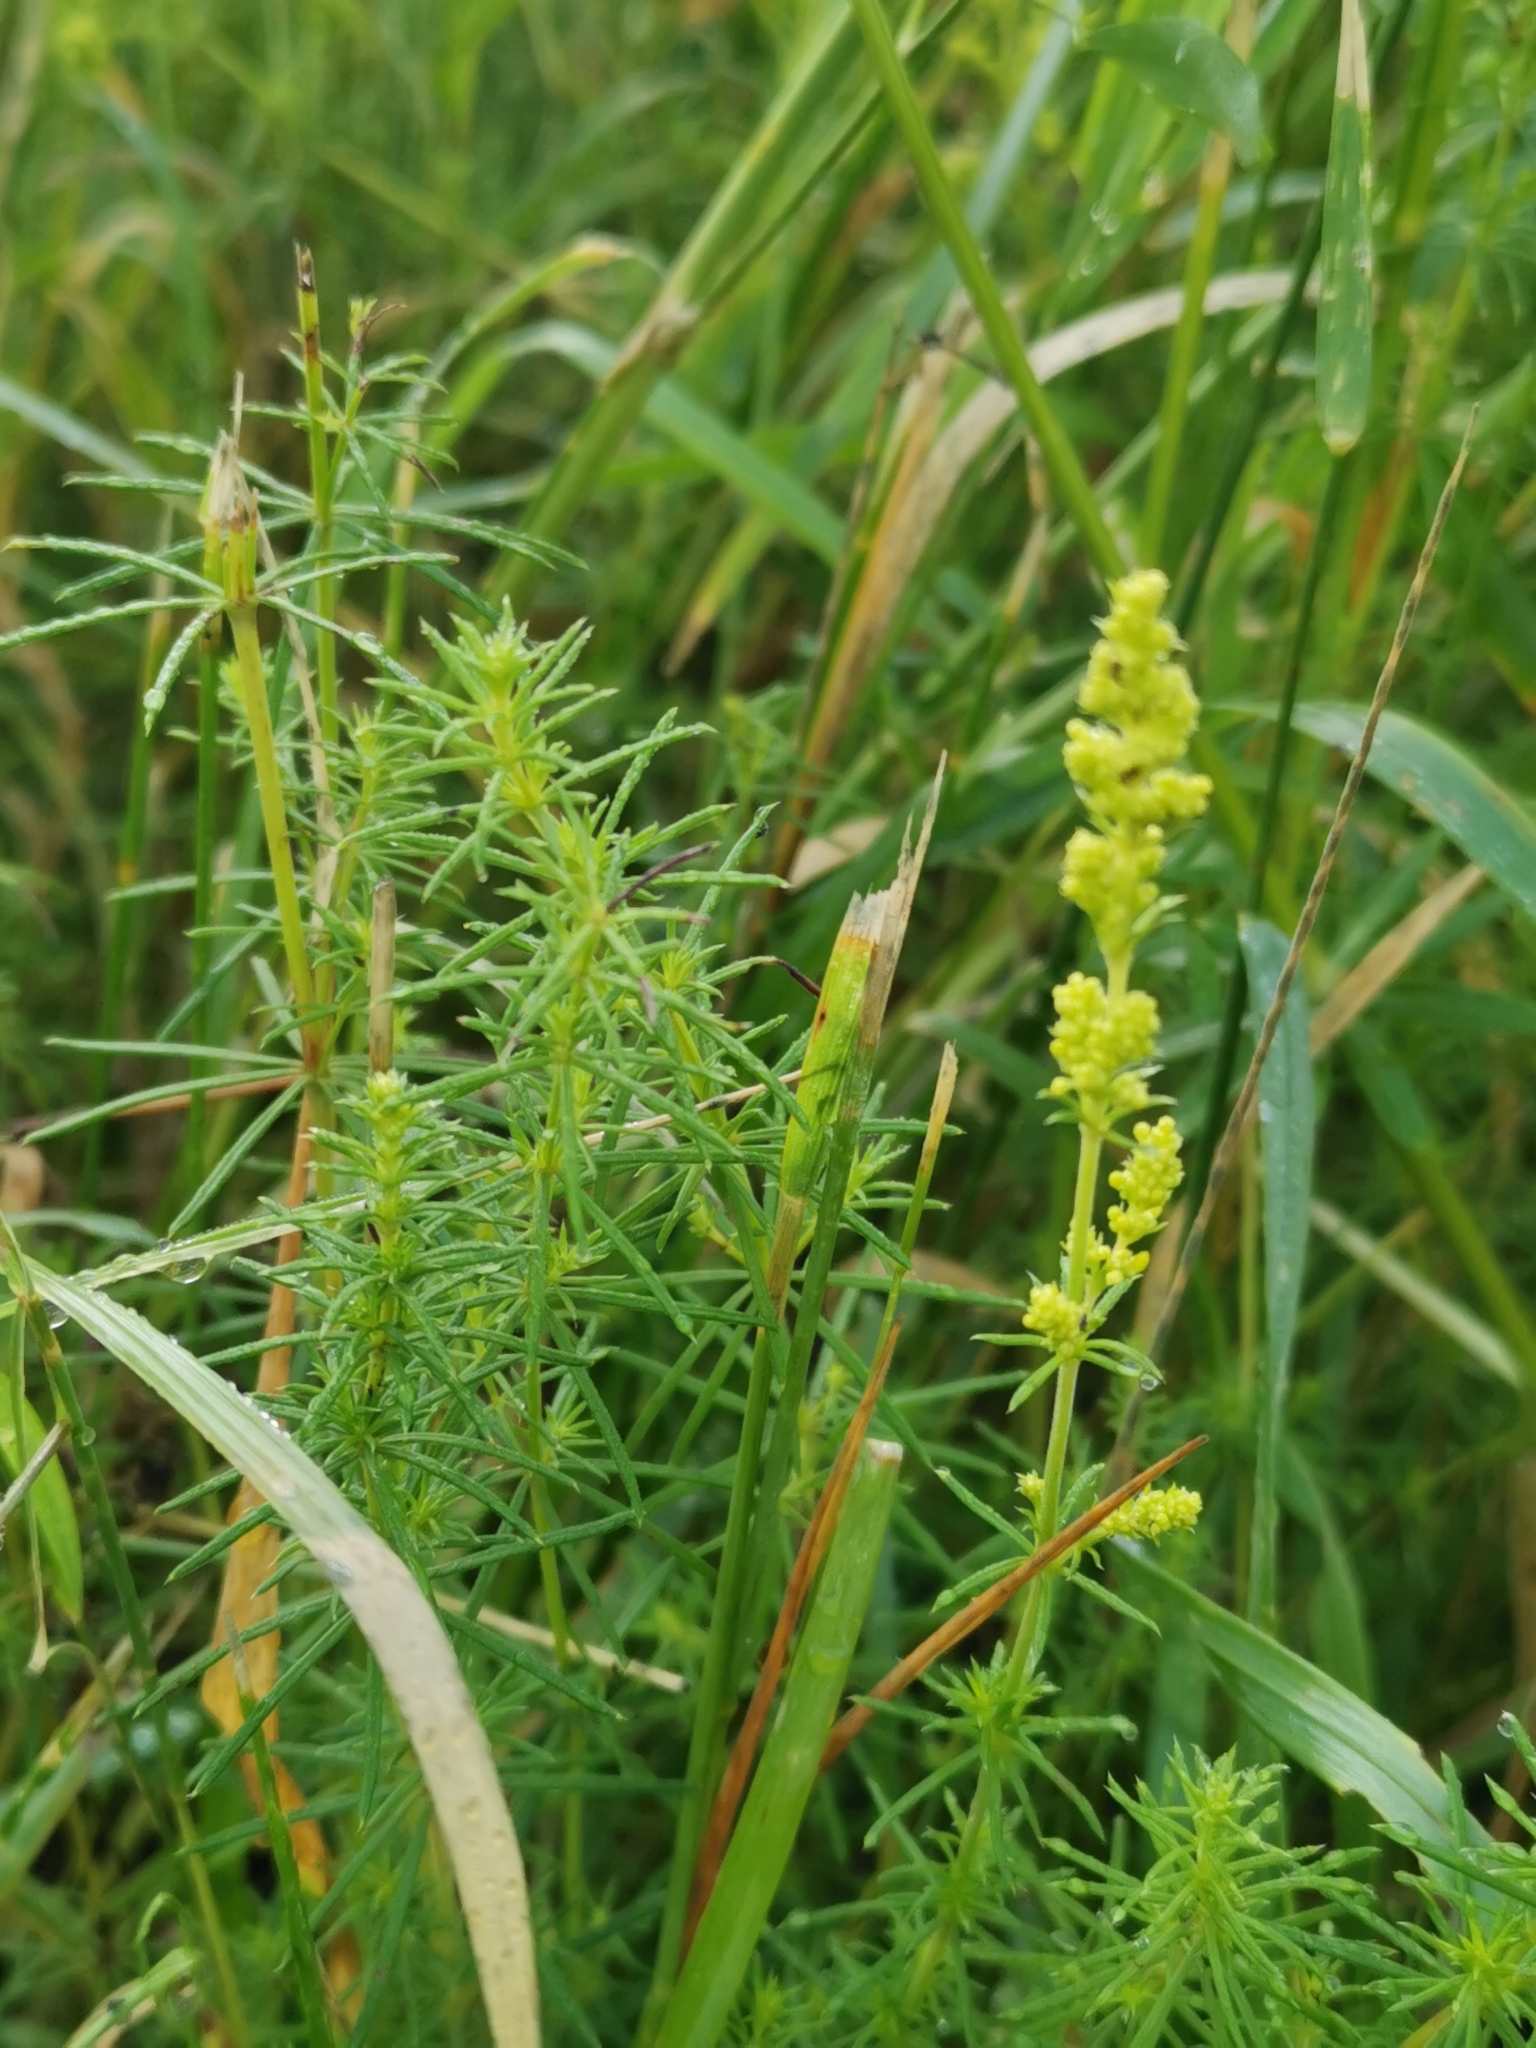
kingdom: Plantae
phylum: Tracheophyta
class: Magnoliopsida
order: Gentianales
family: Rubiaceae
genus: Galium
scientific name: Galium verum
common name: Lady's bedstraw
